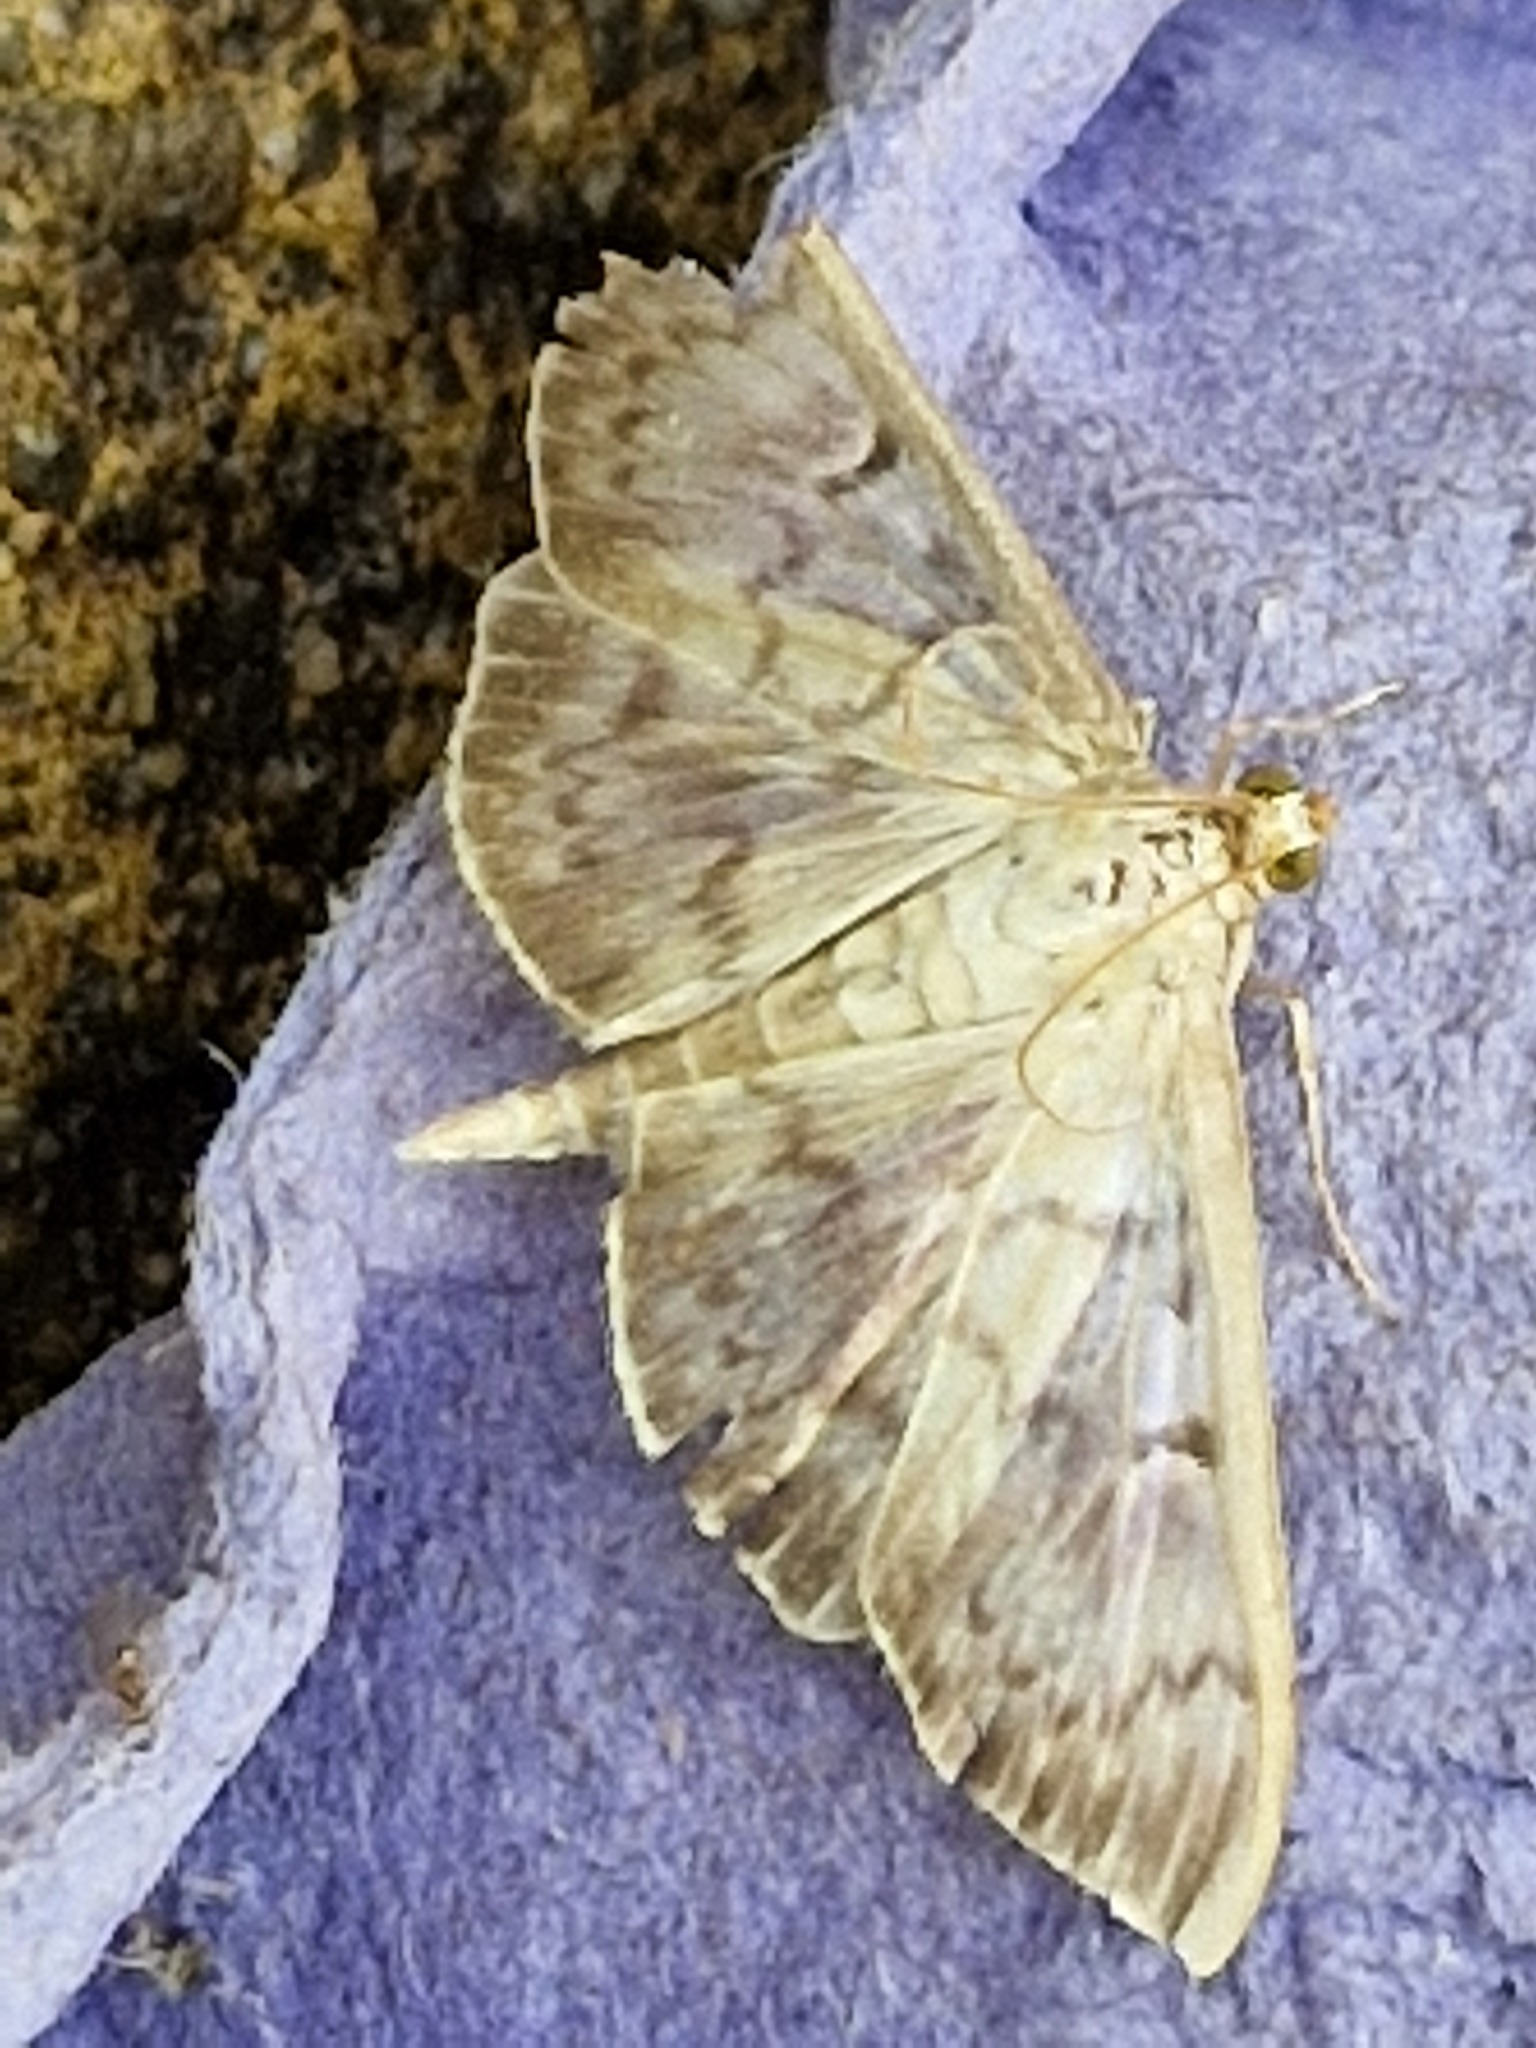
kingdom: Animalia
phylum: Arthropoda
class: Insecta
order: Lepidoptera
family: Crambidae
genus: Patania
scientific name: Patania ruralis
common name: Mother of pearl
